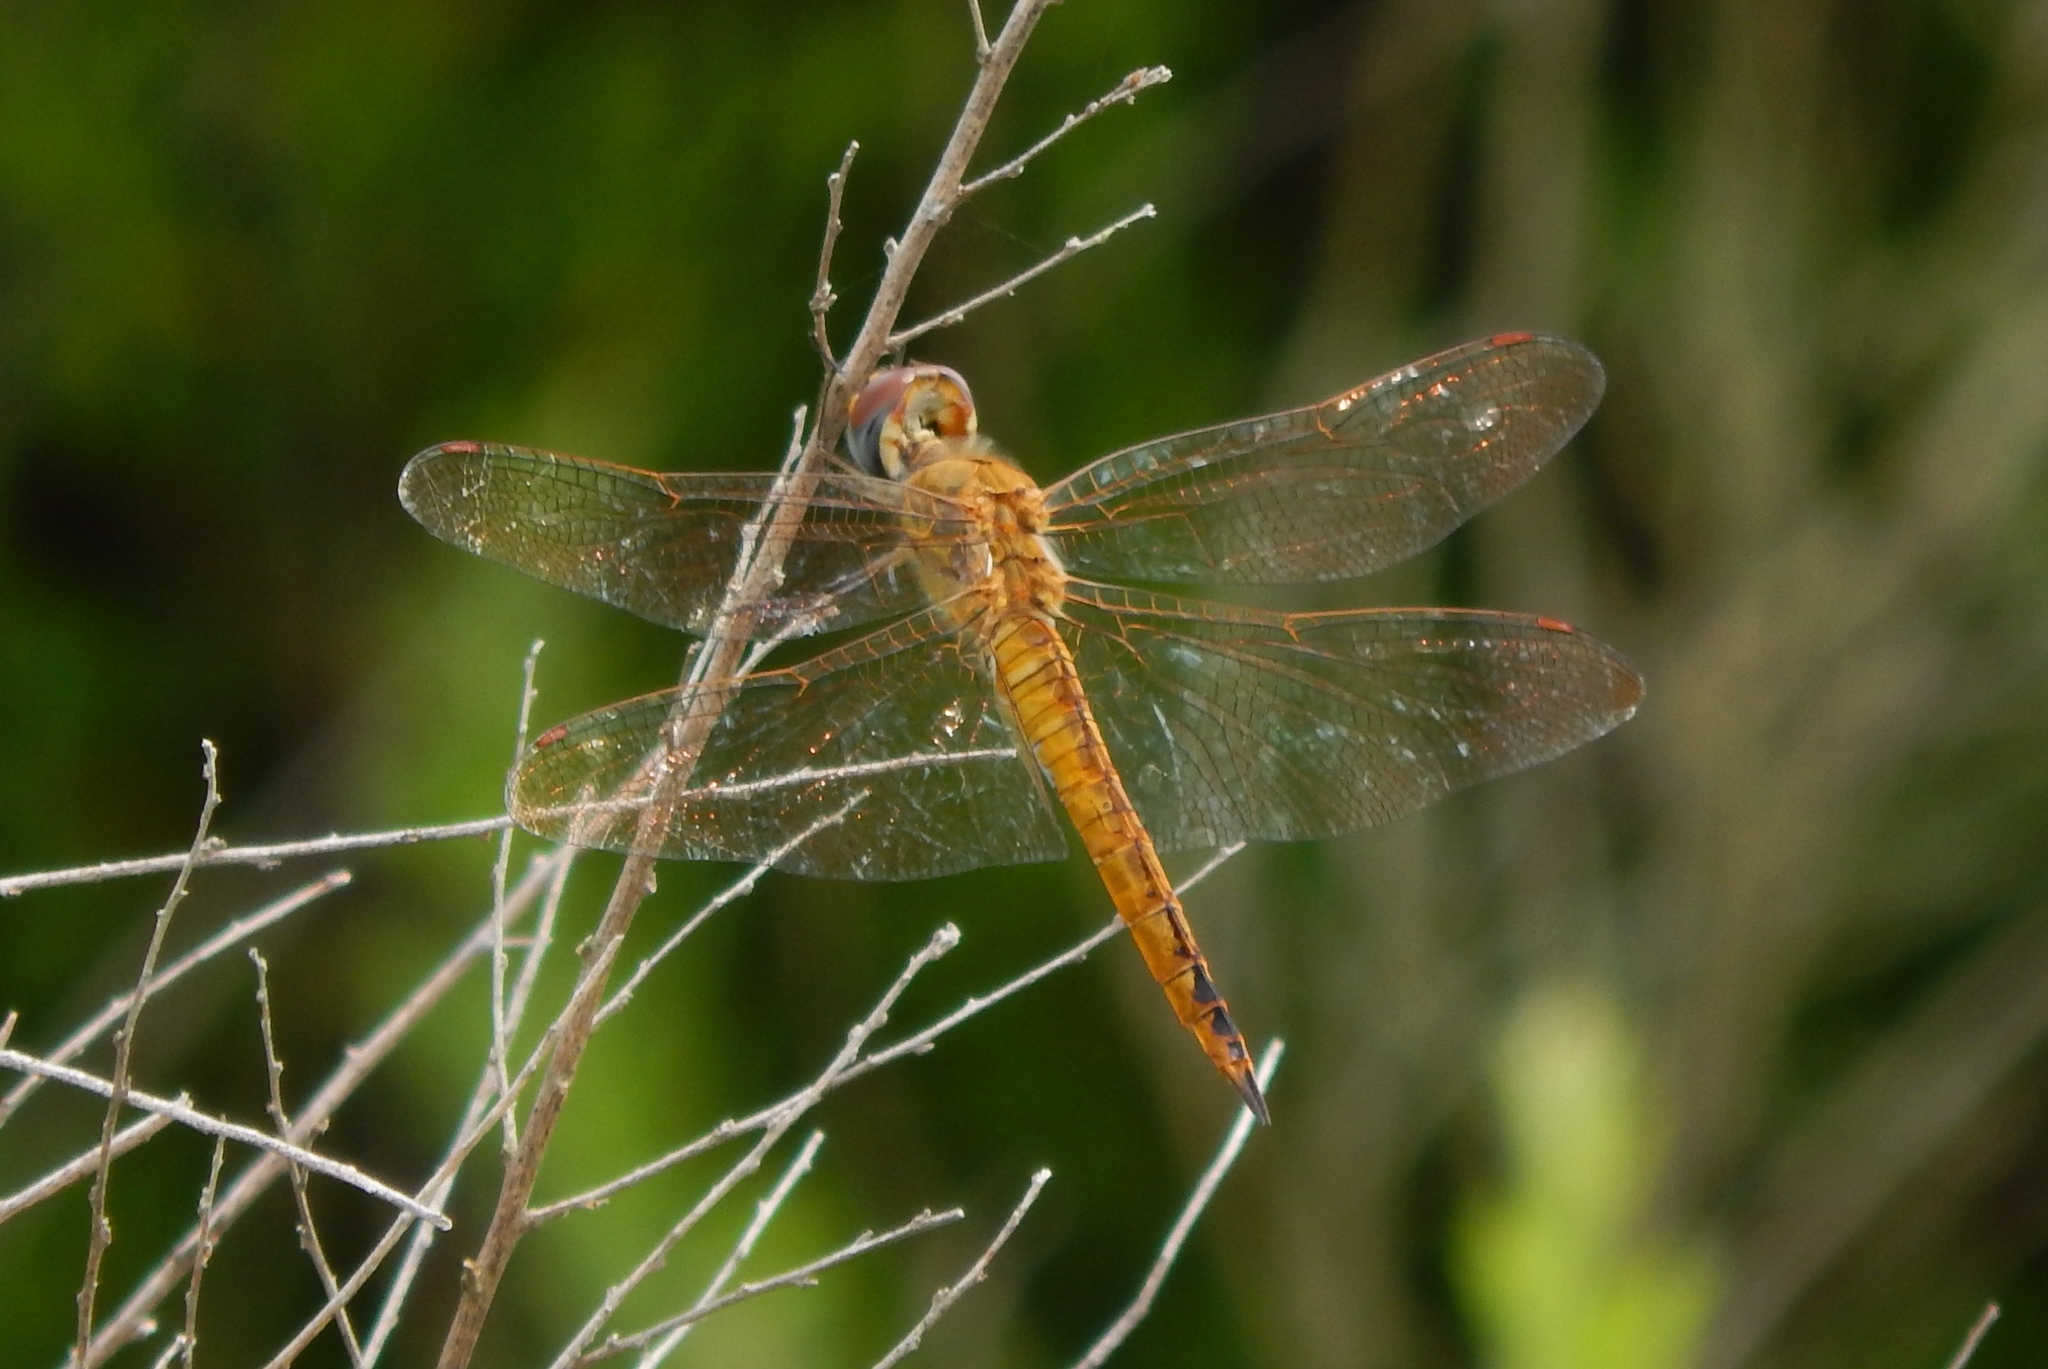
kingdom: Animalia
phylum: Arthropoda
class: Insecta
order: Odonata
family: Libellulidae
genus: Pantala
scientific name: Pantala flavescens
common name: Wandering glider
